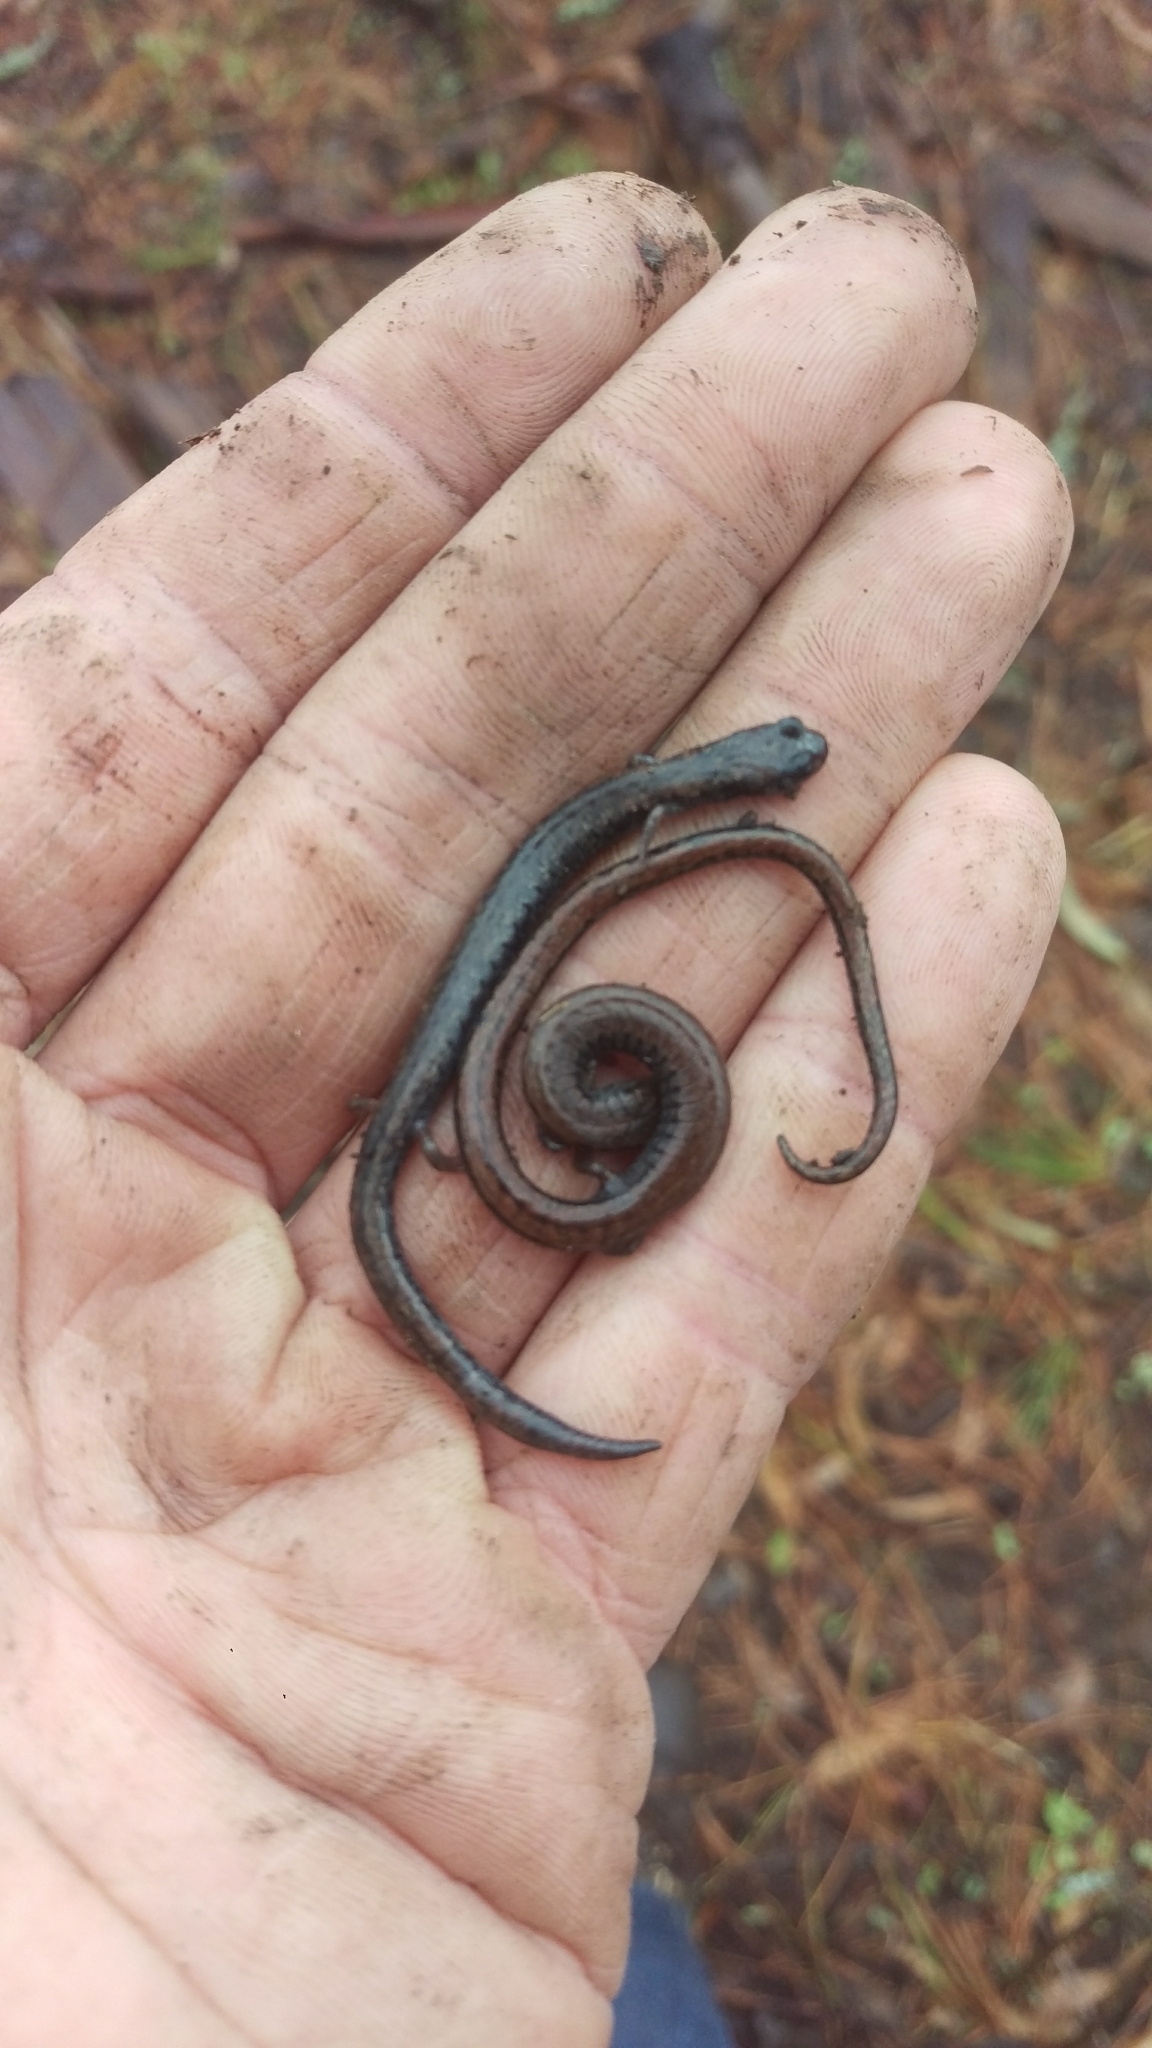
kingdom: Animalia
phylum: Chordata
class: Amphibia
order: Caudata
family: Plethodontidae
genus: Batrachoseps
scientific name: Batrachoseps attenuatus
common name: California slender salamander
